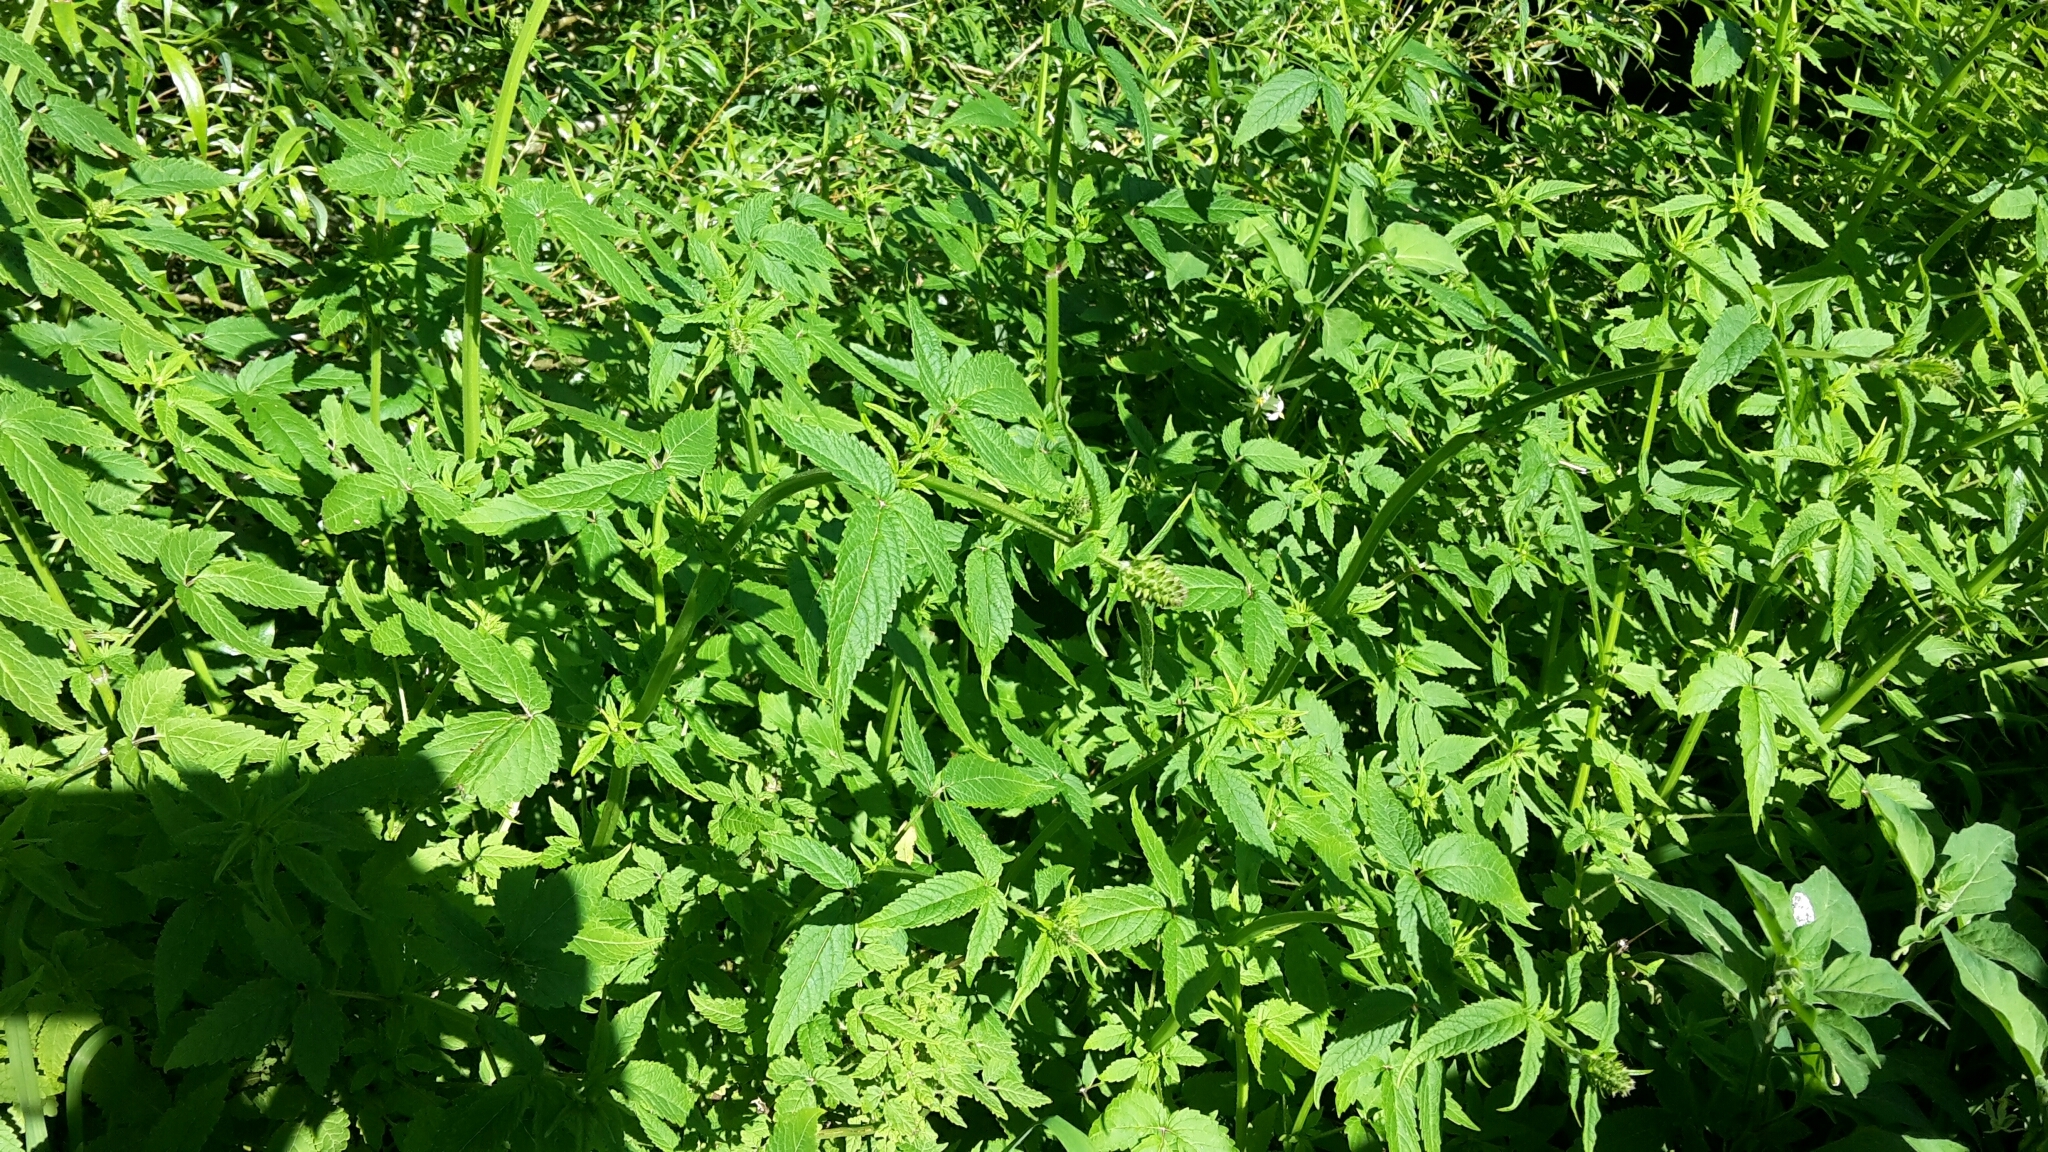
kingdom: Plantae
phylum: Tracheophyta
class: Magnoliopsida
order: Lamiales
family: Lamiaceae
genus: Cedronella
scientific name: Cedronella canariensis
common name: Canary islands balm
